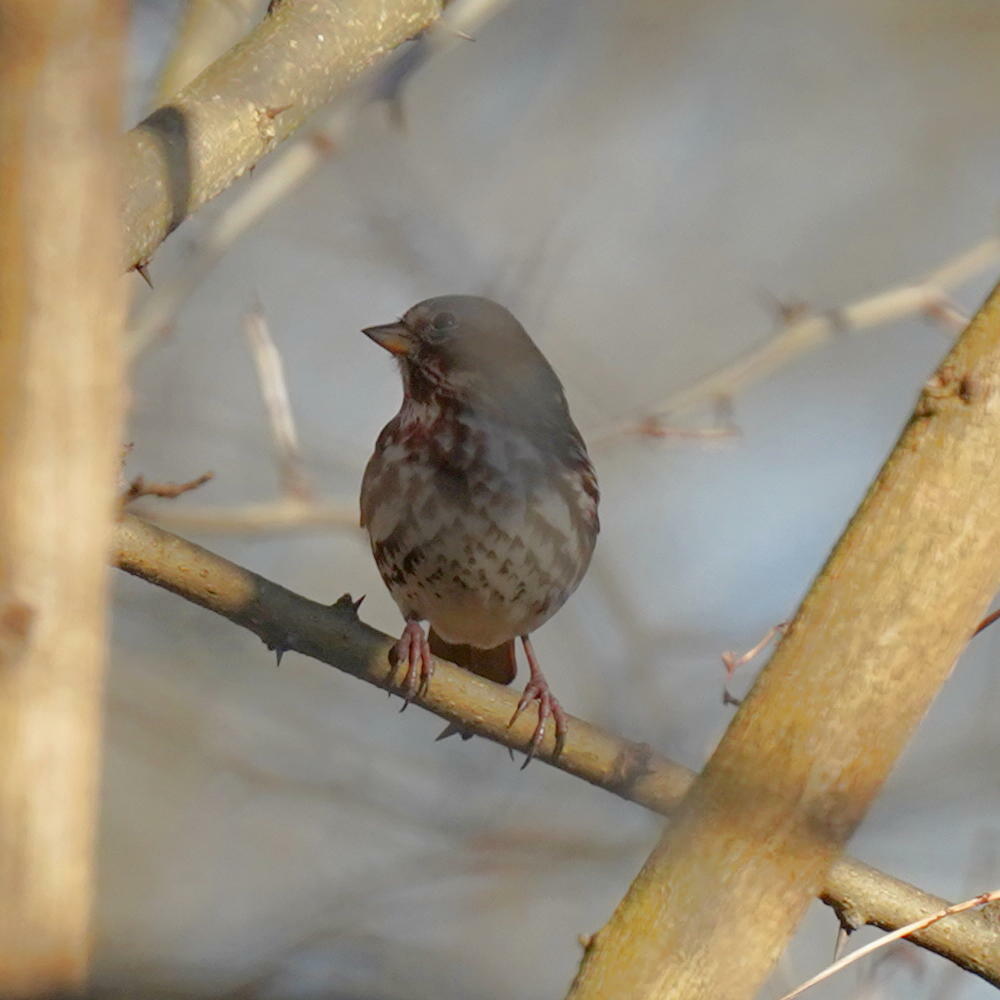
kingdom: Animalia
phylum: Chordata
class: Aves
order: Passeriformes
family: Passerellidae
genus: Passerella
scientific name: Passerella iliaca
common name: Fox sparrow
